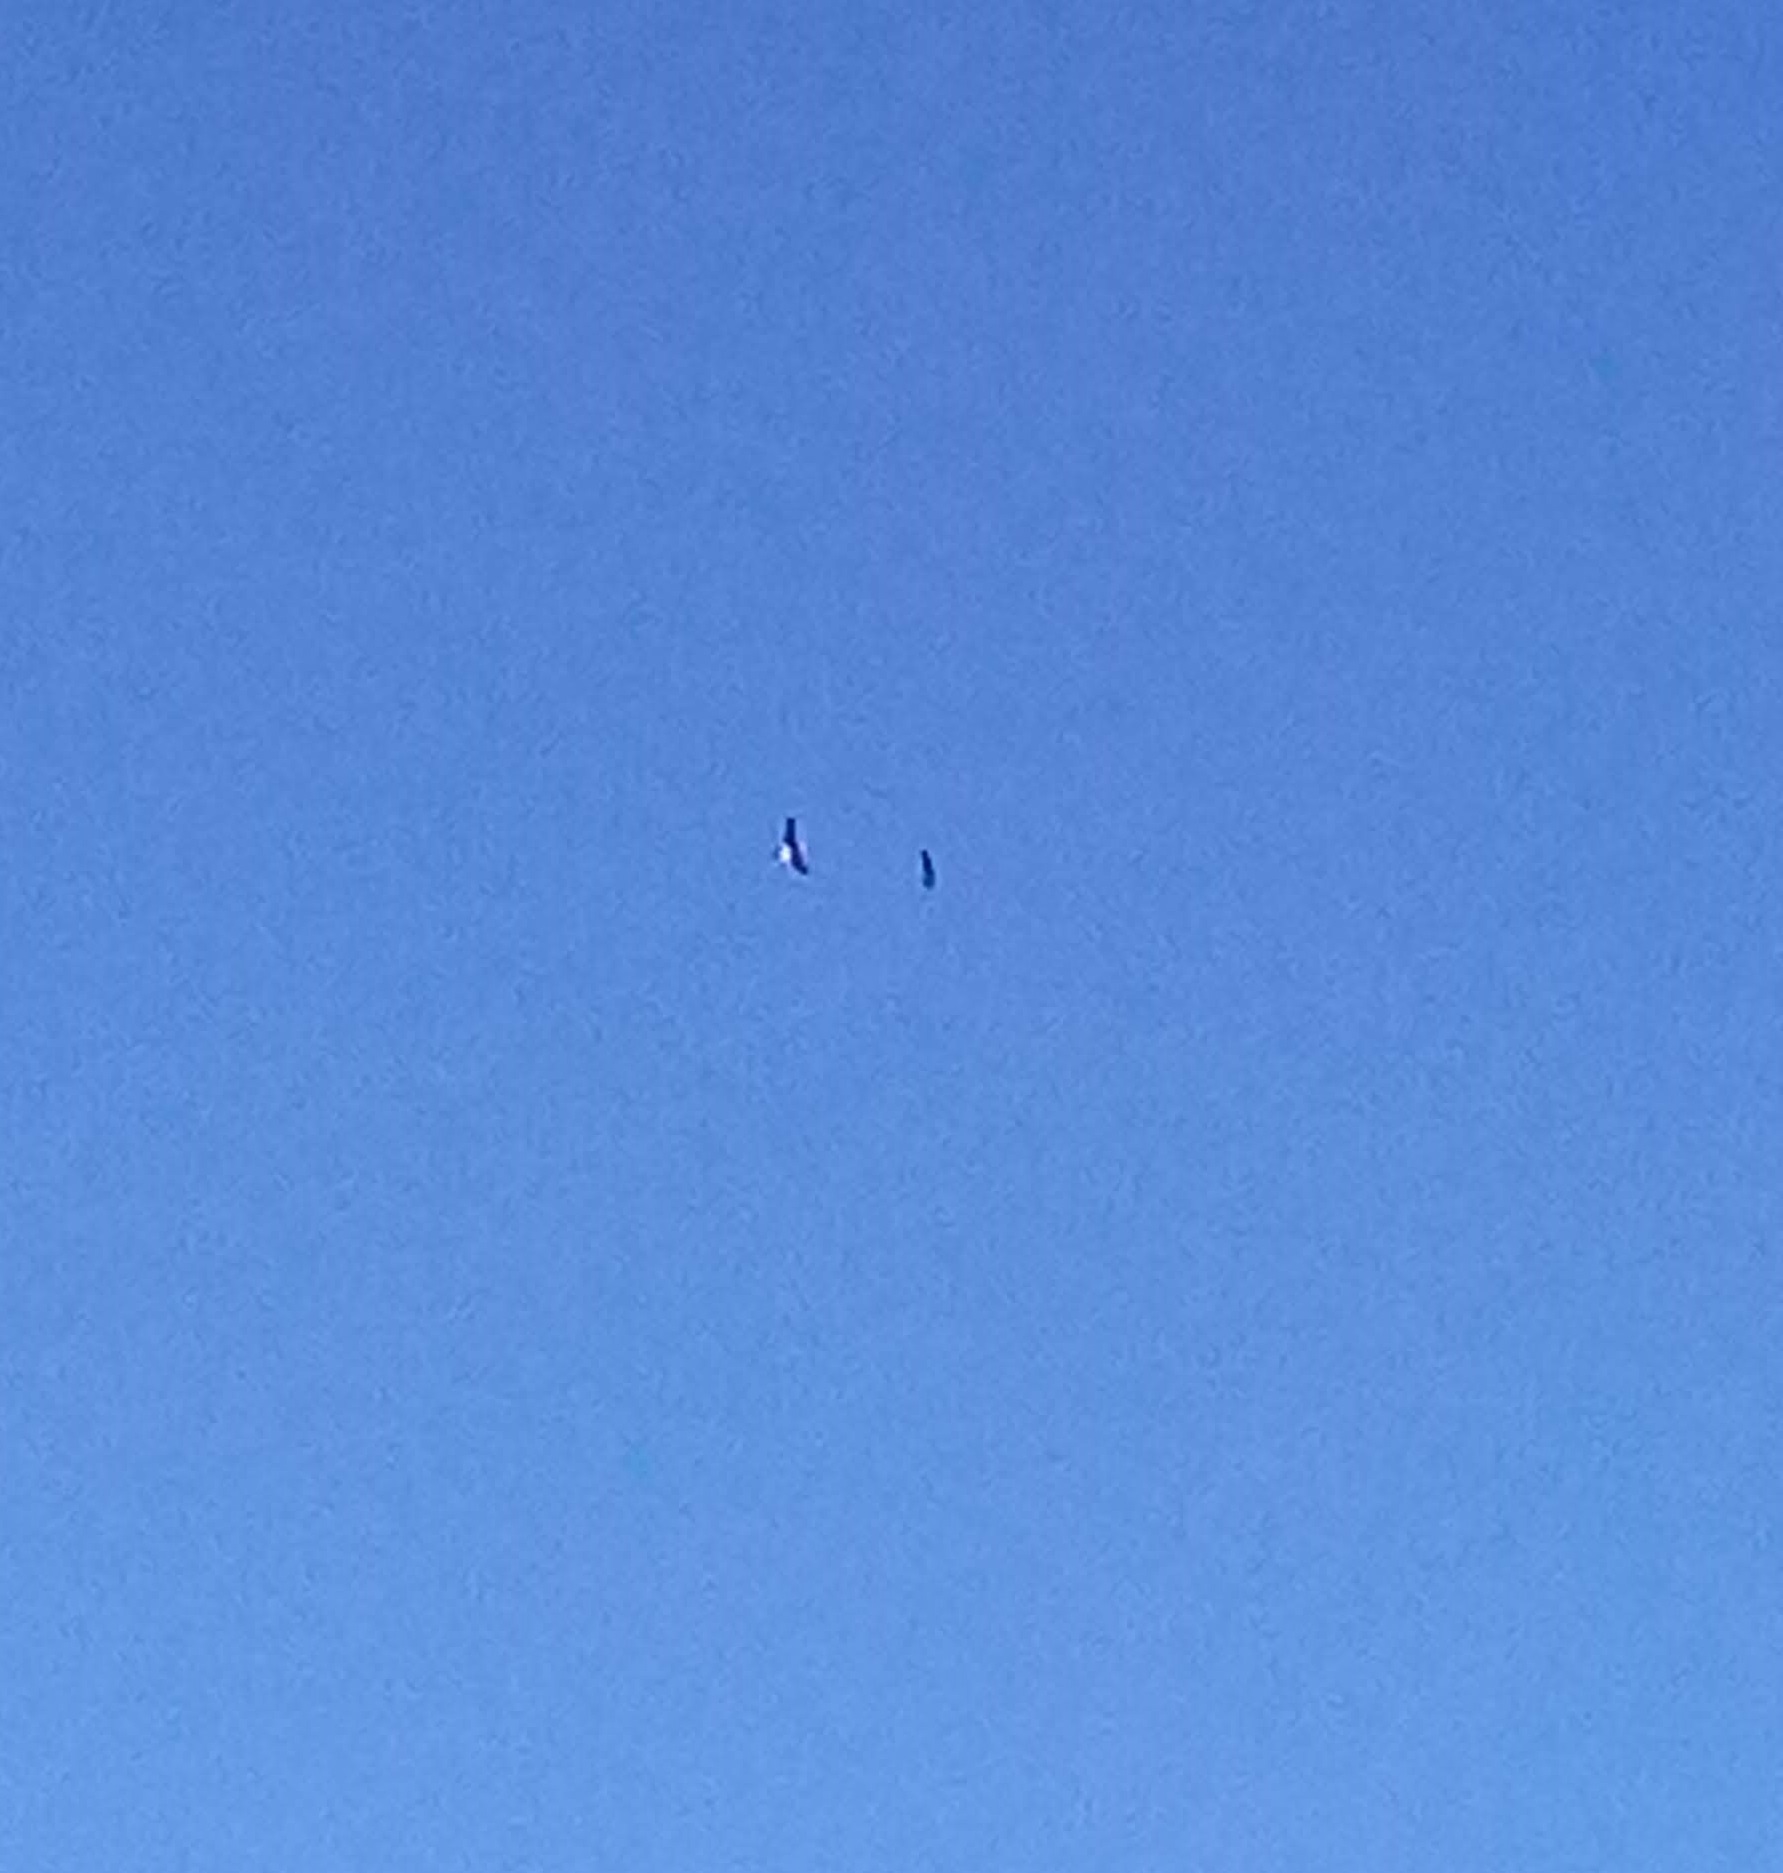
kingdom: Animalia
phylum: Chordata
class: Aves
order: Accipitriformes
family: Accipitridae
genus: Haliaeetus
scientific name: Haliaeetus leucocephalus
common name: Bald eagle
